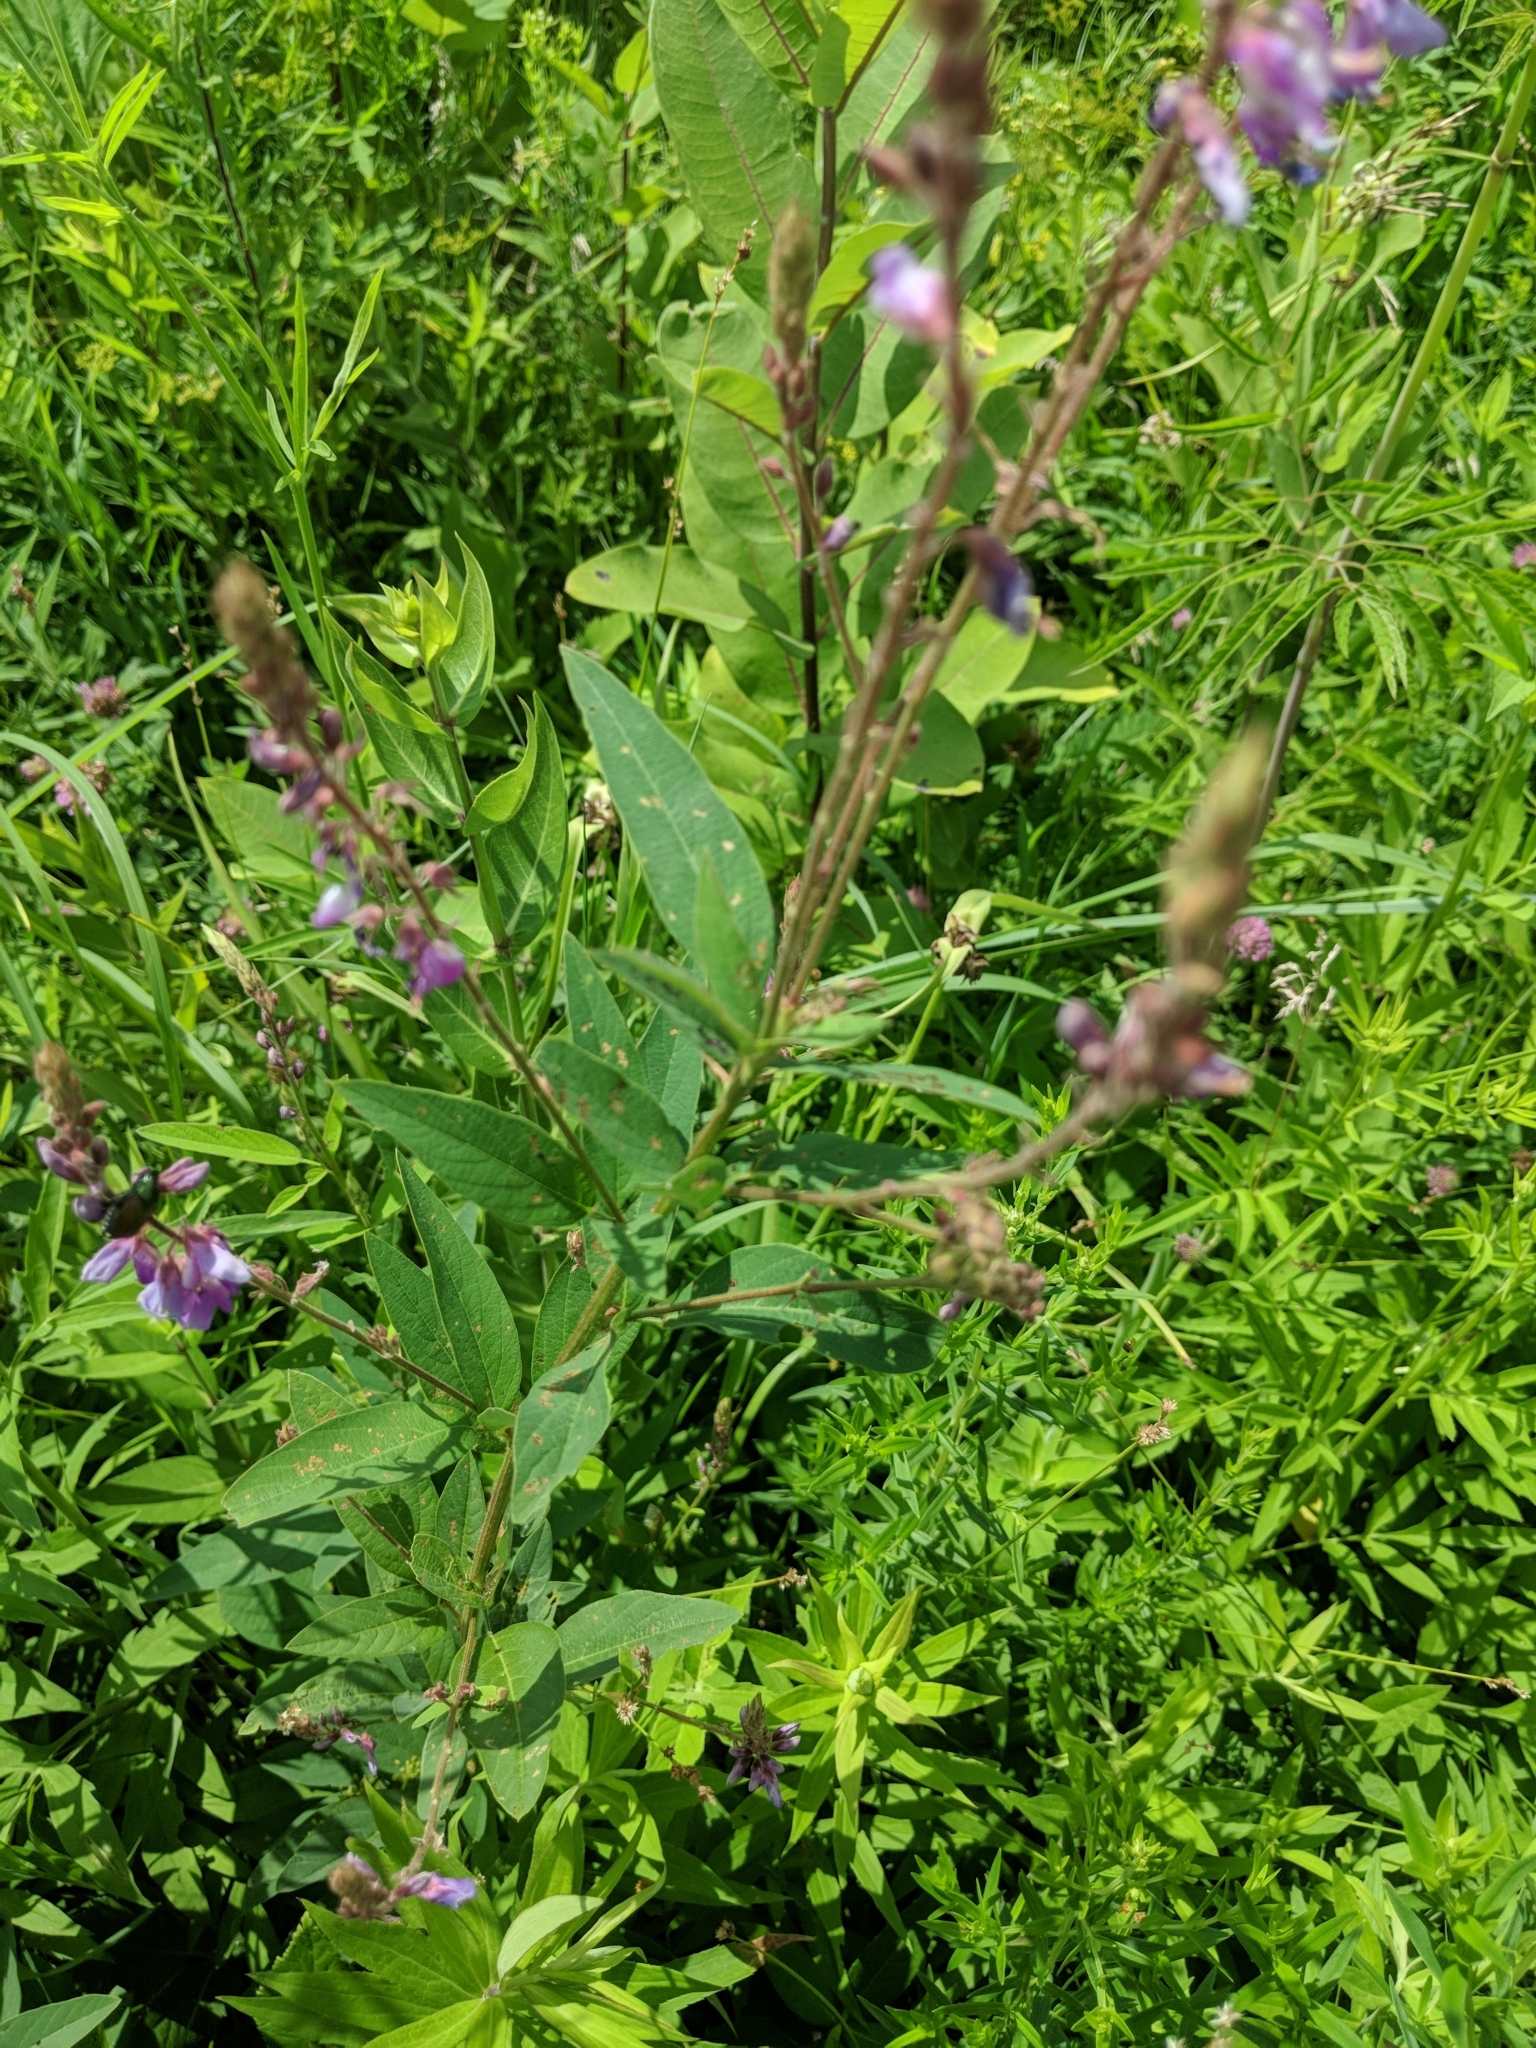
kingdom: Plantae
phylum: Tracheophyta
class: Magnoliopsida
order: Fabales
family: Fabaceae
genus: Desmodium
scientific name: Desmodium canadense
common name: Canada tick-trefoil
